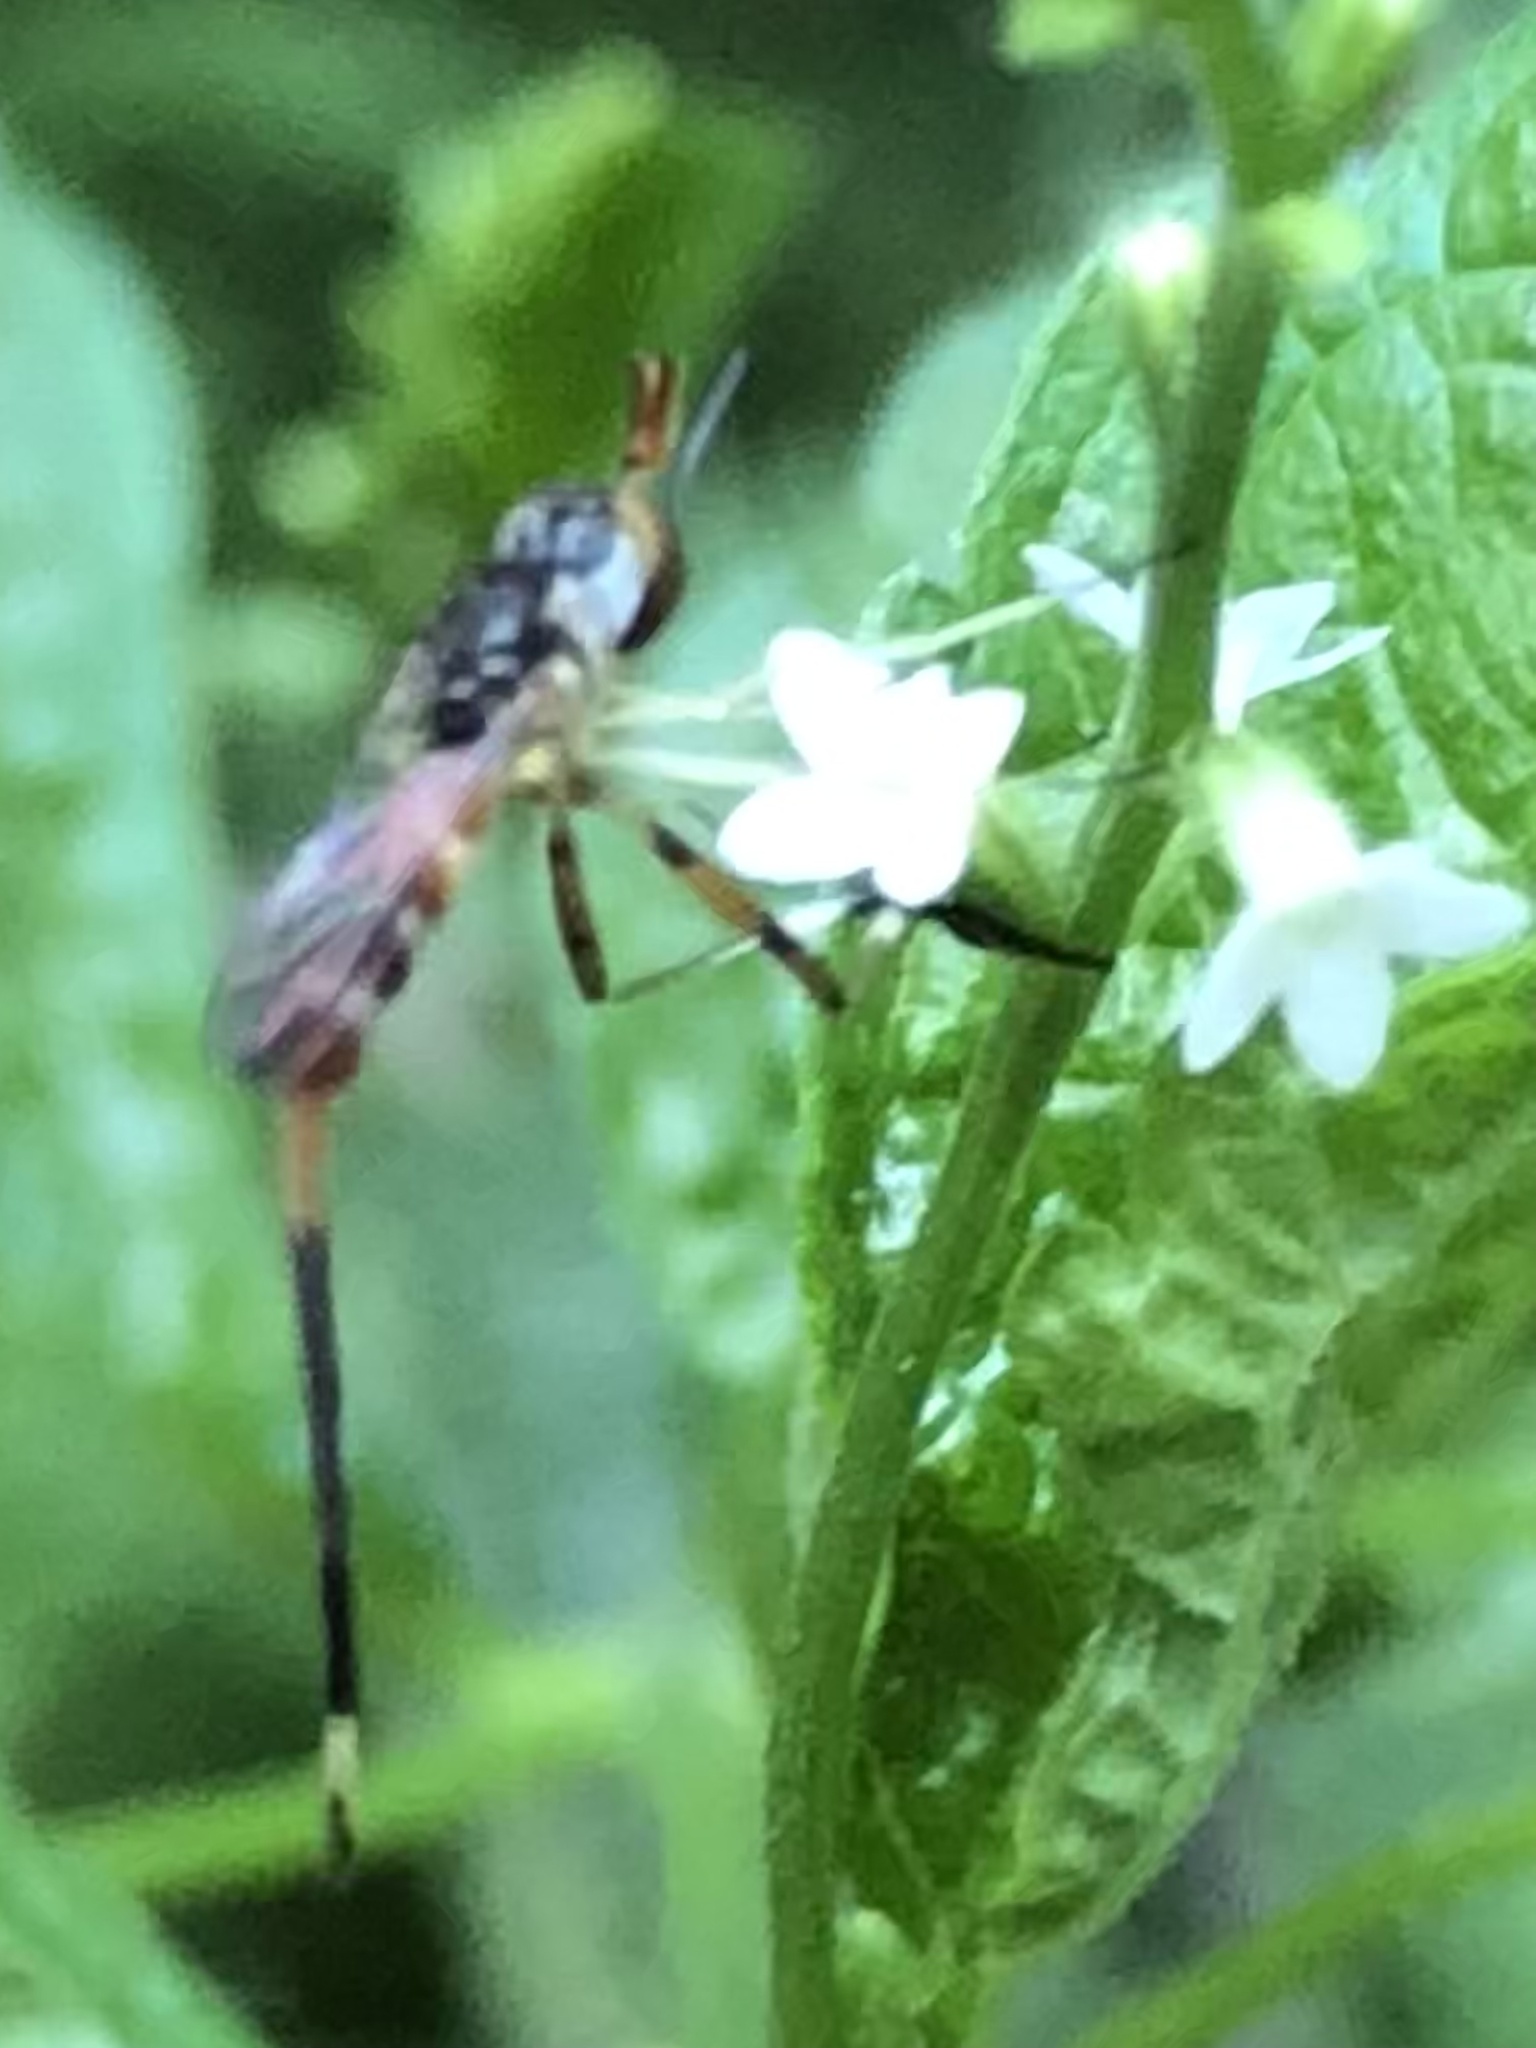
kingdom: Animalia
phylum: Arthropoda
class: Insecta
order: Diptera
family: Conopidae
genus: Stylogaster
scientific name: Stylogaster neglecta
